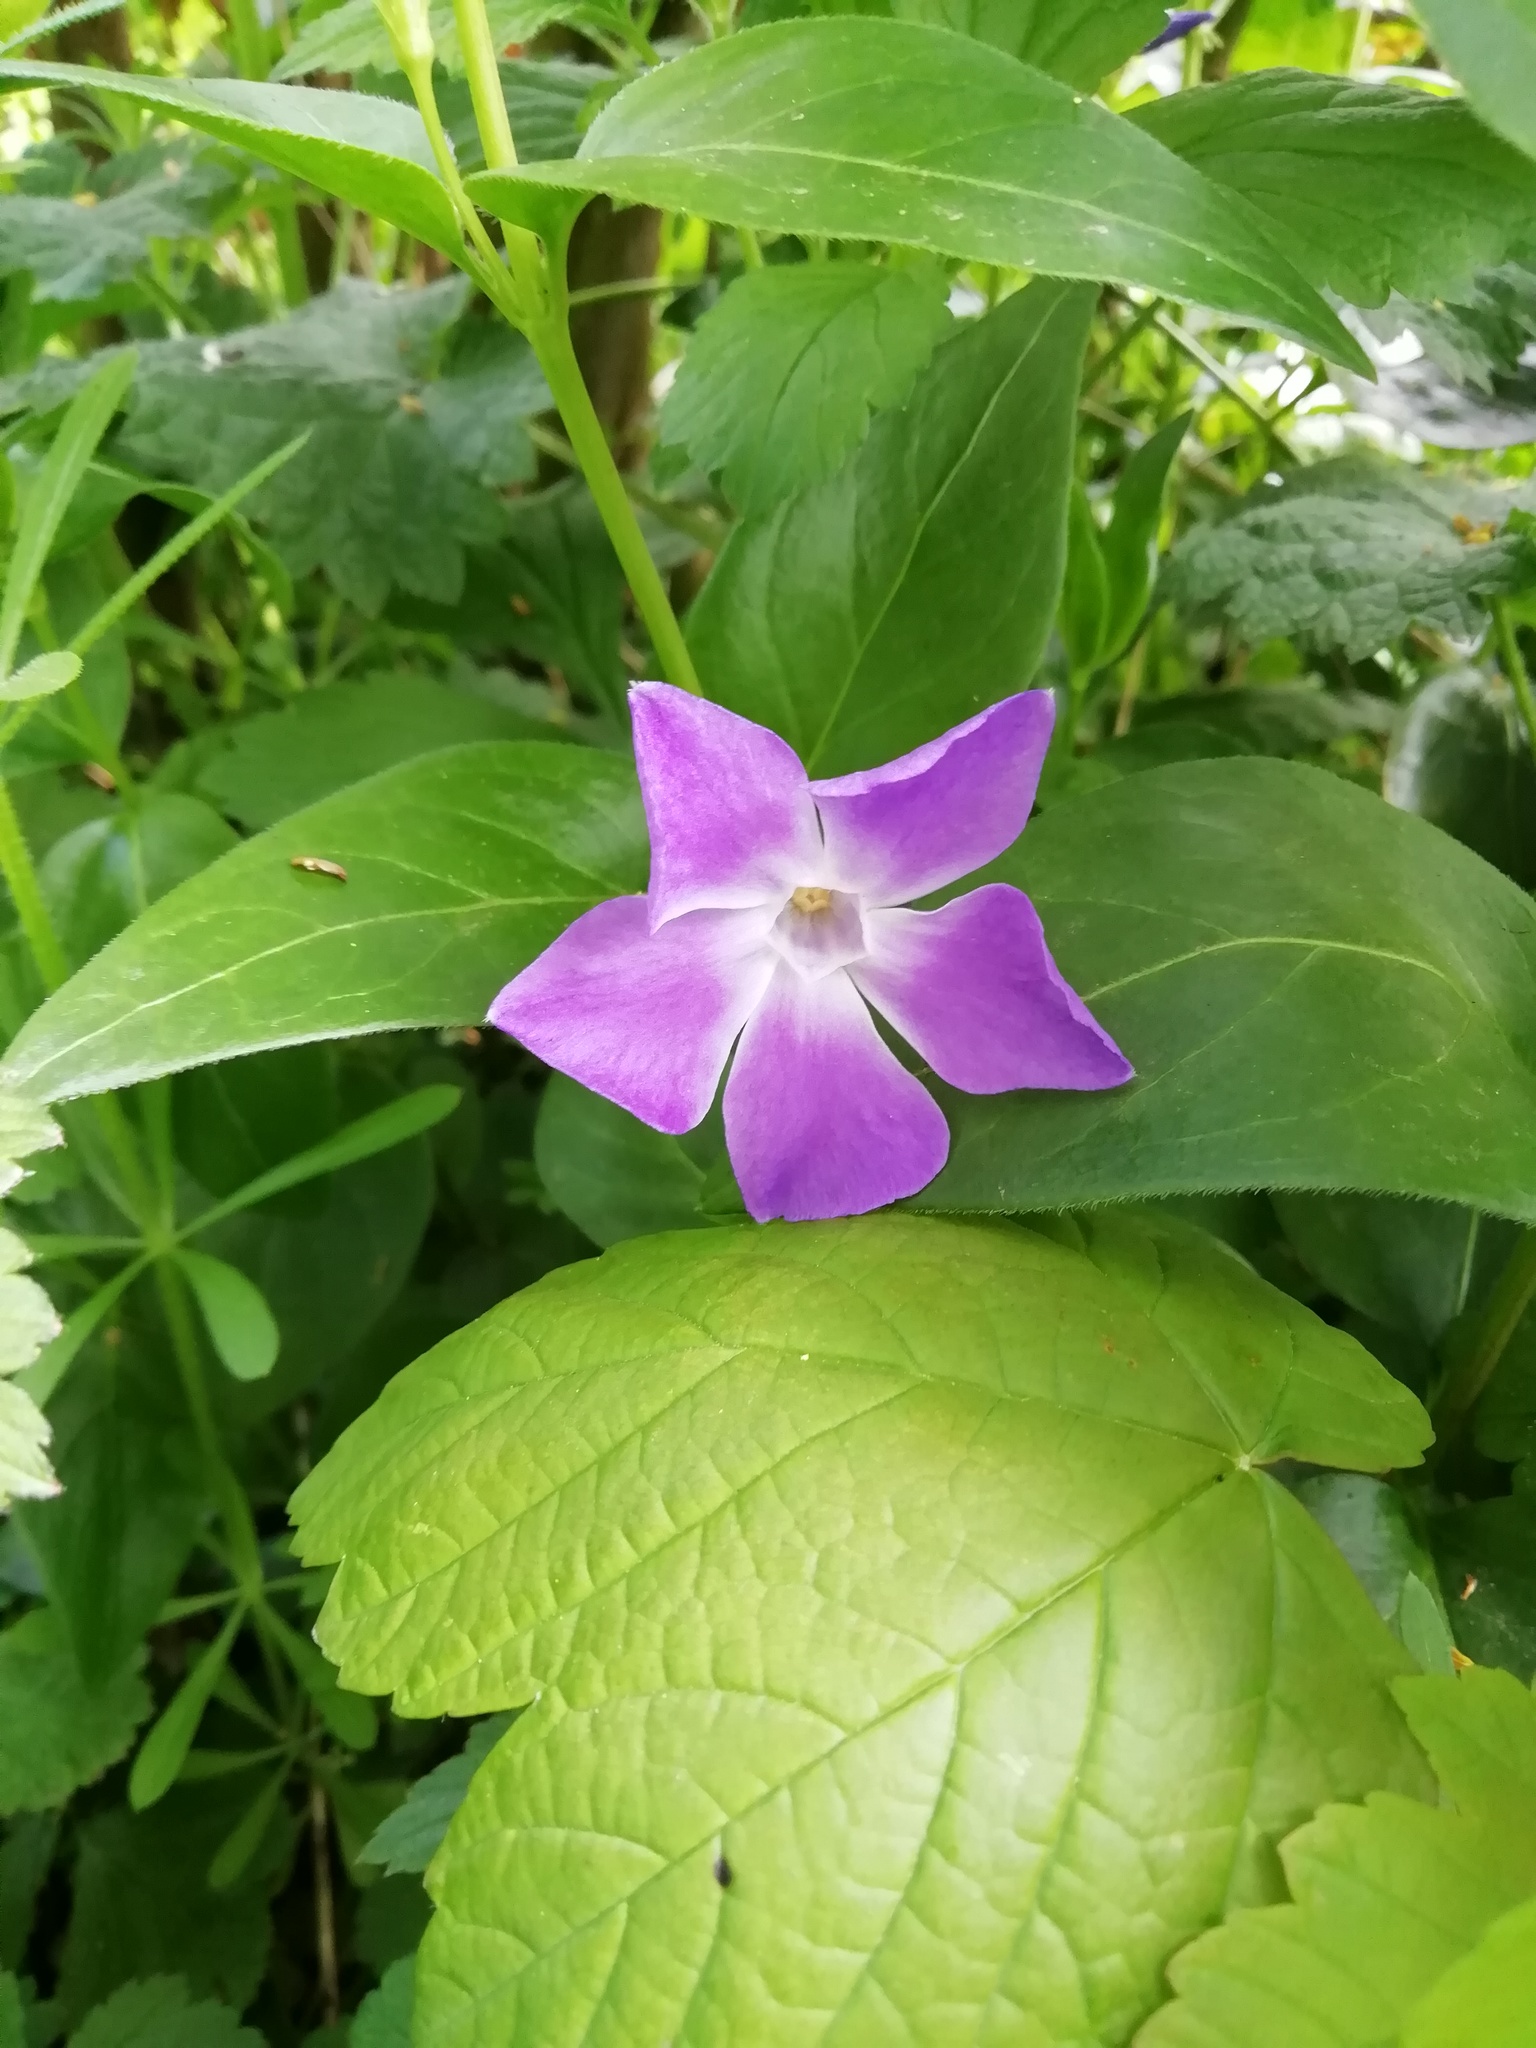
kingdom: Plantae
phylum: Tracheophyta
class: Magnoliopsida
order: Gentianales
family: Apocynaceae
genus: Vinca
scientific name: Vinca major
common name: Greater periwinkle
